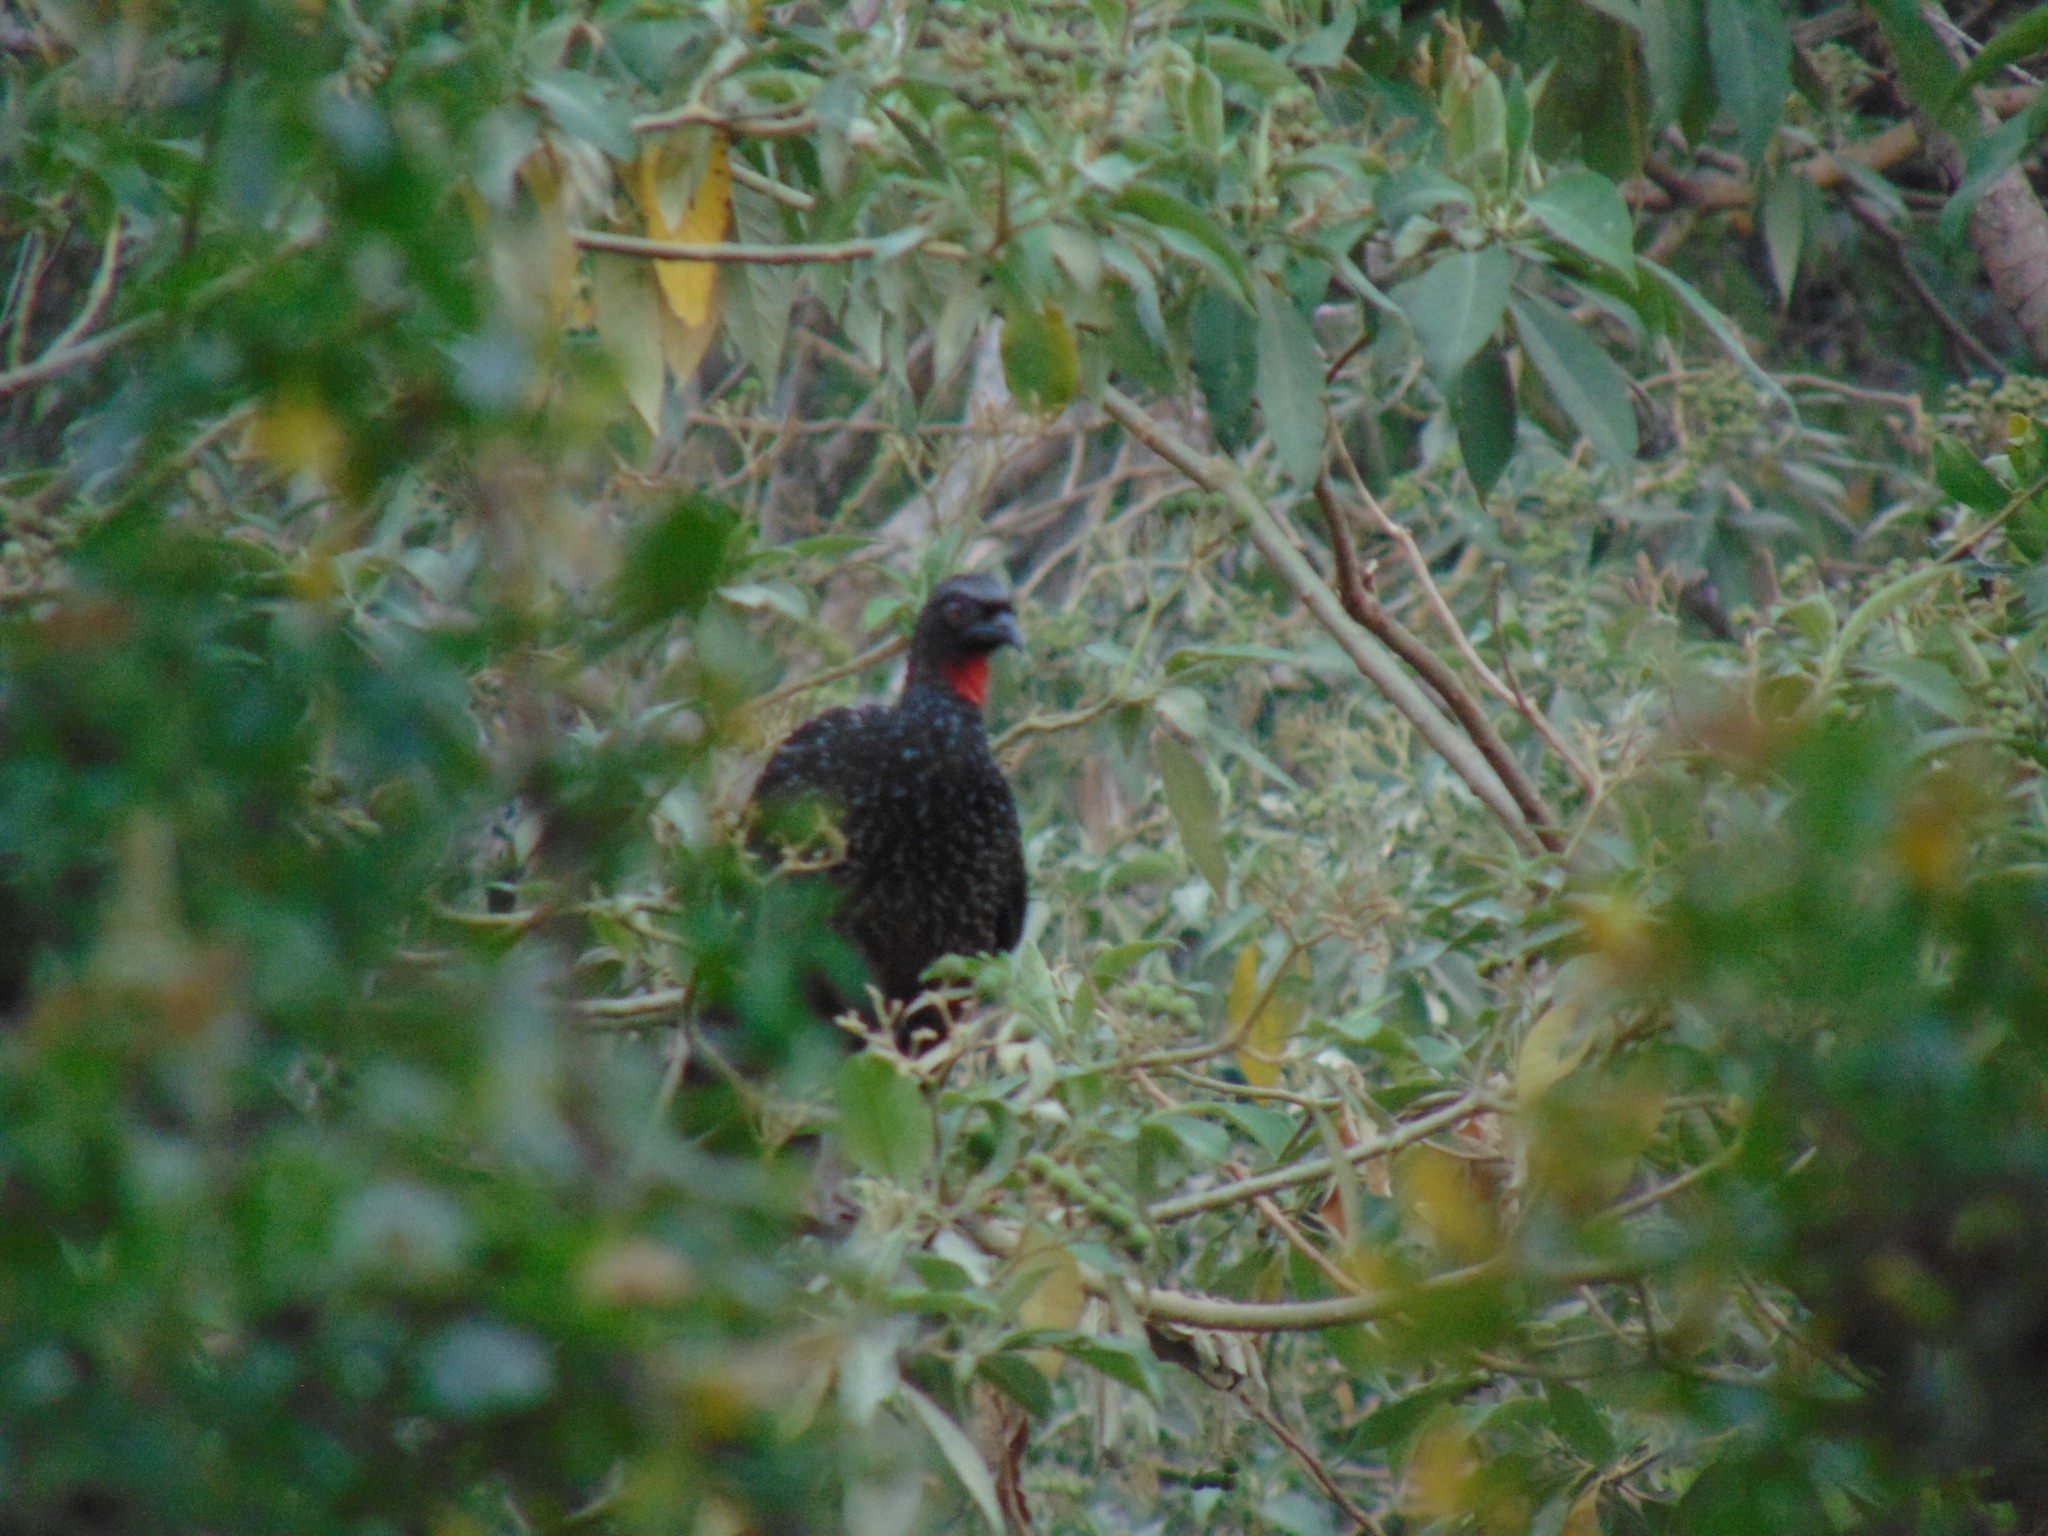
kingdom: Animalia
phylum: Chordata
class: Aves
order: Galliformes
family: Cracidae
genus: Penelope
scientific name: Penelope obscura
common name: Dusky-legged guan
